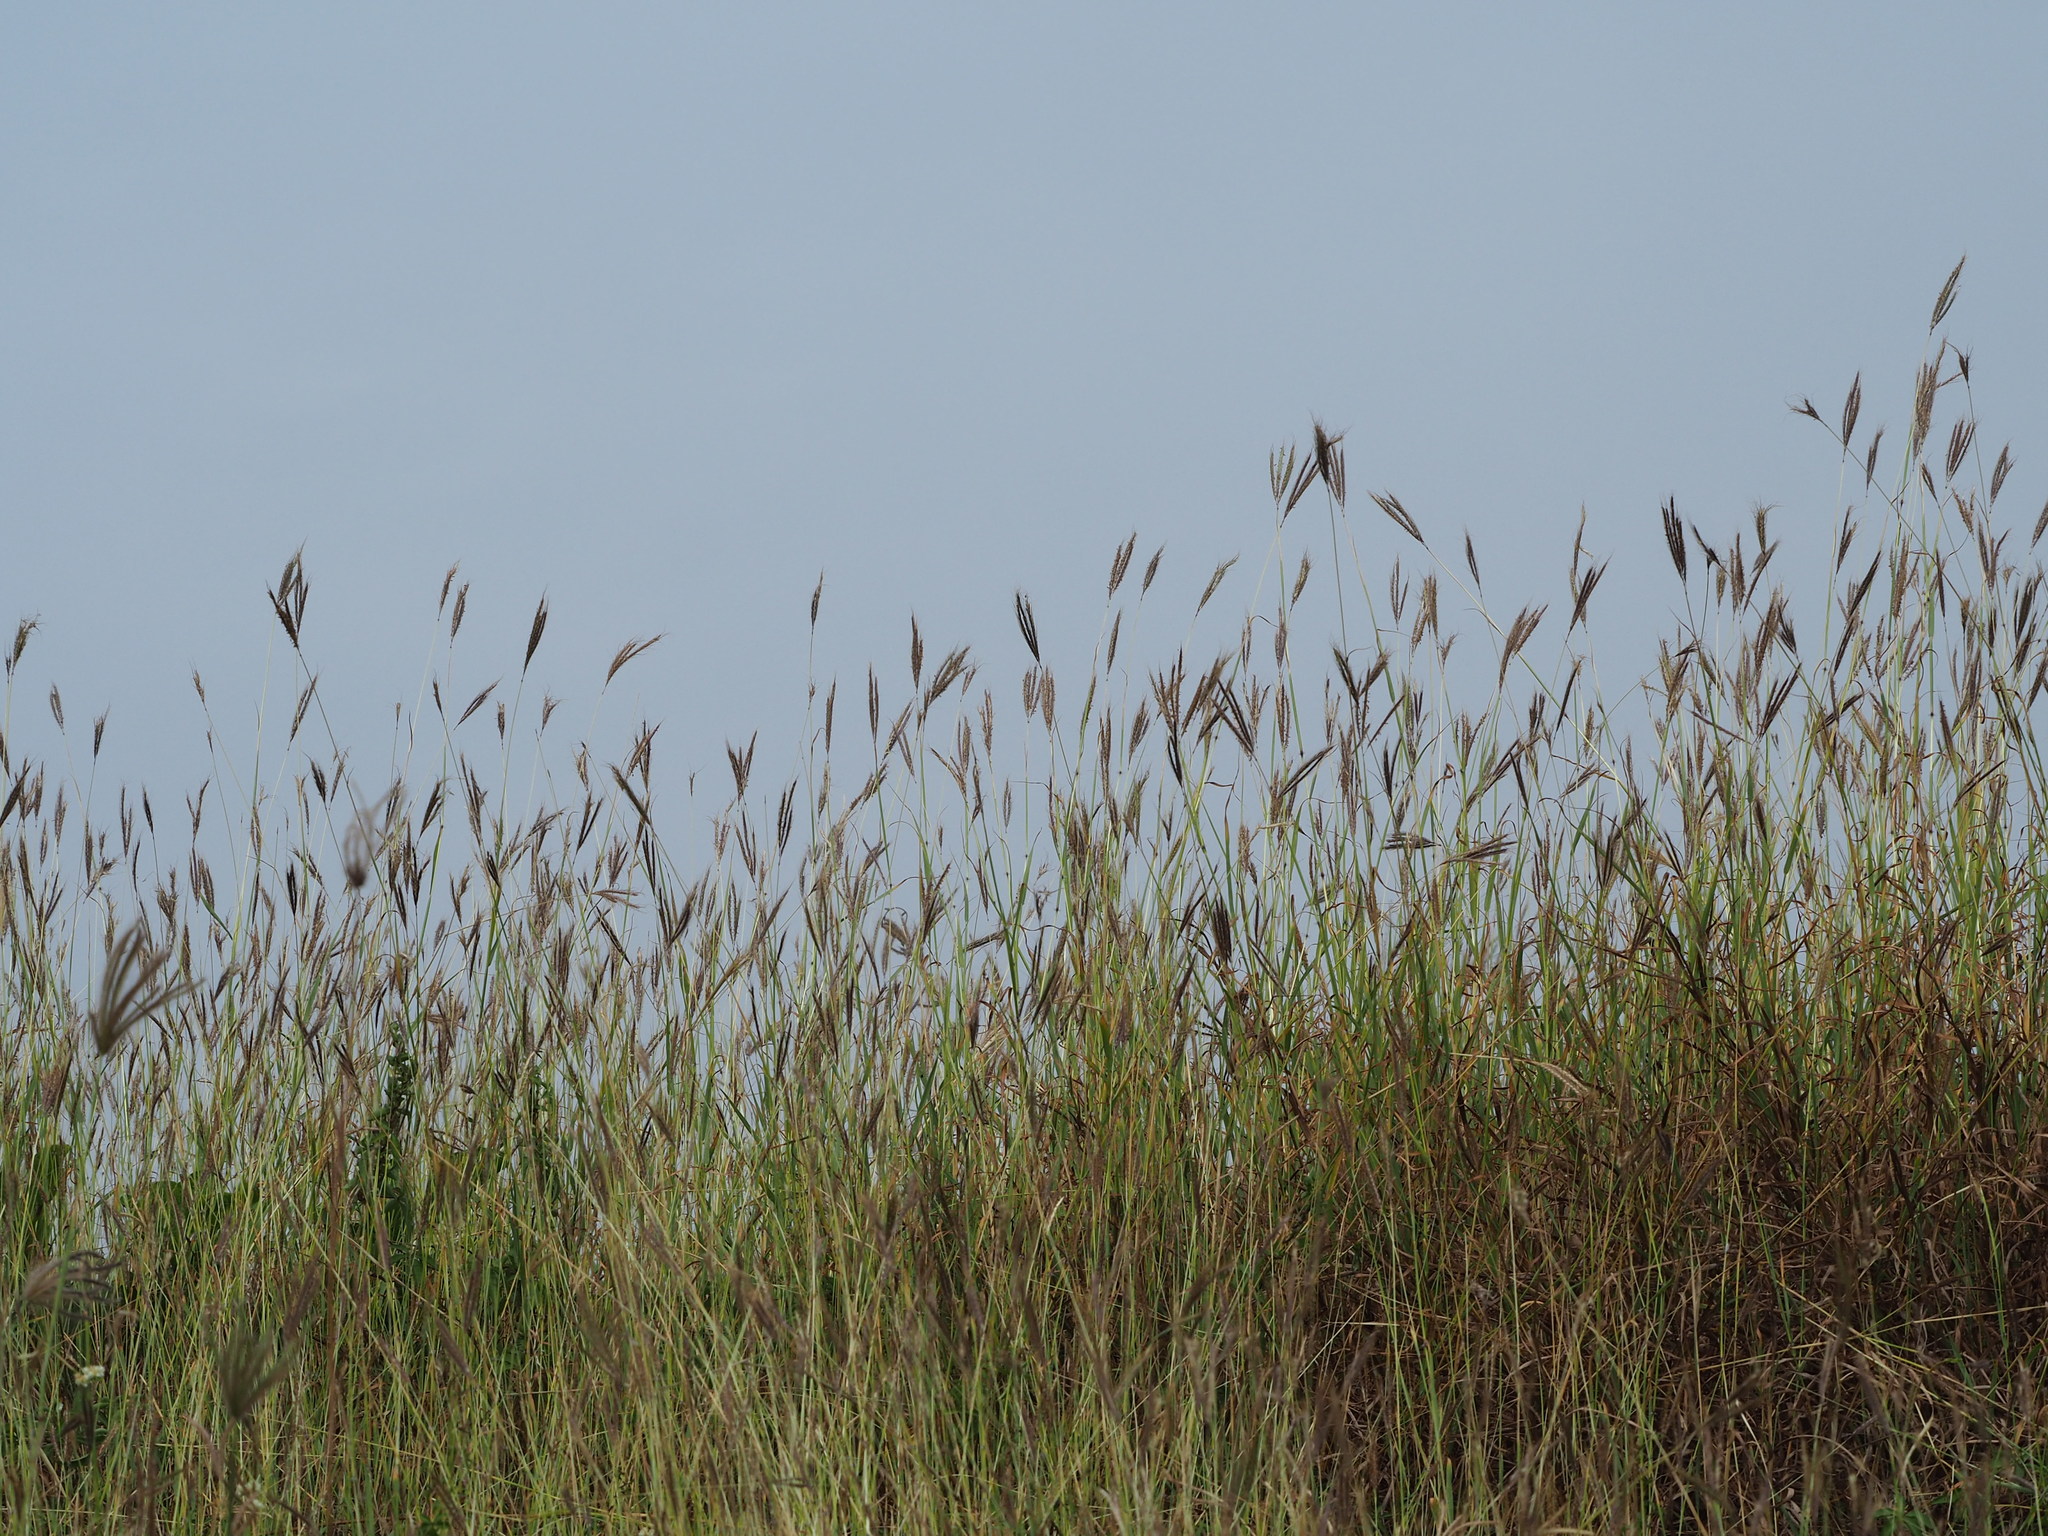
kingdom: Plantae
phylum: Tracheophyta
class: Liliopsida
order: Poales
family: Poaceae
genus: Dichanthium
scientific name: Dichanthium annulatum
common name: Kleberg's bluestem
